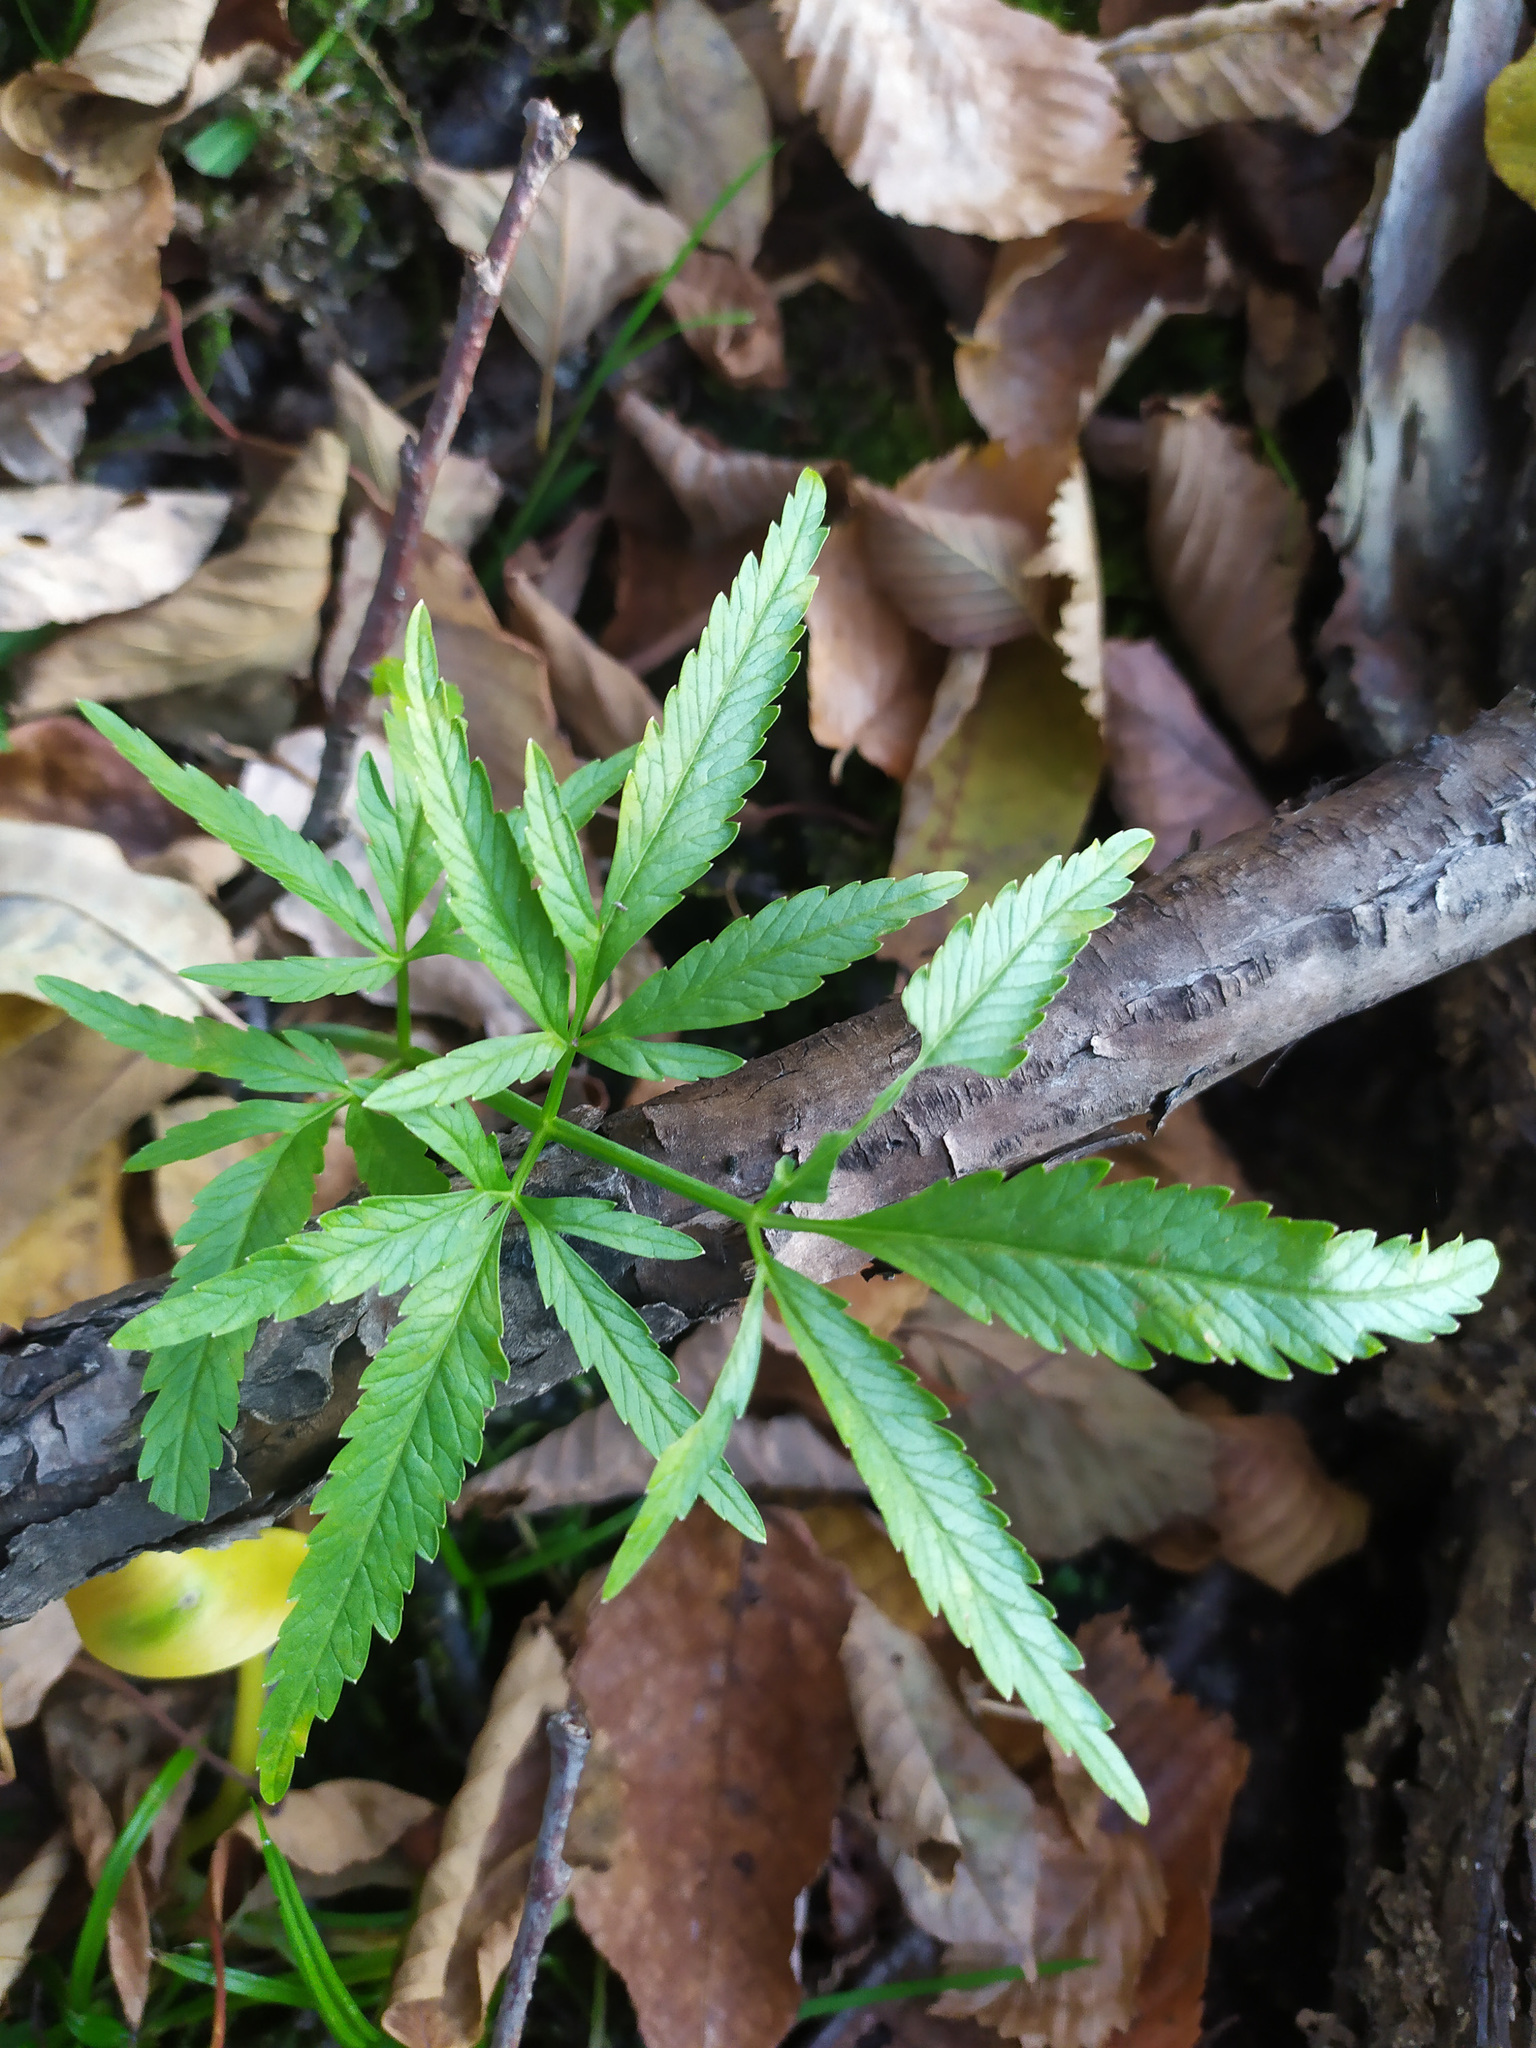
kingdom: Plantae
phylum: Tracheophyta
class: Magnoliopsida
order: Apiales
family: Apiaceae
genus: Cicuta
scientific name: Cicuta virosa
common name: Cowbane
